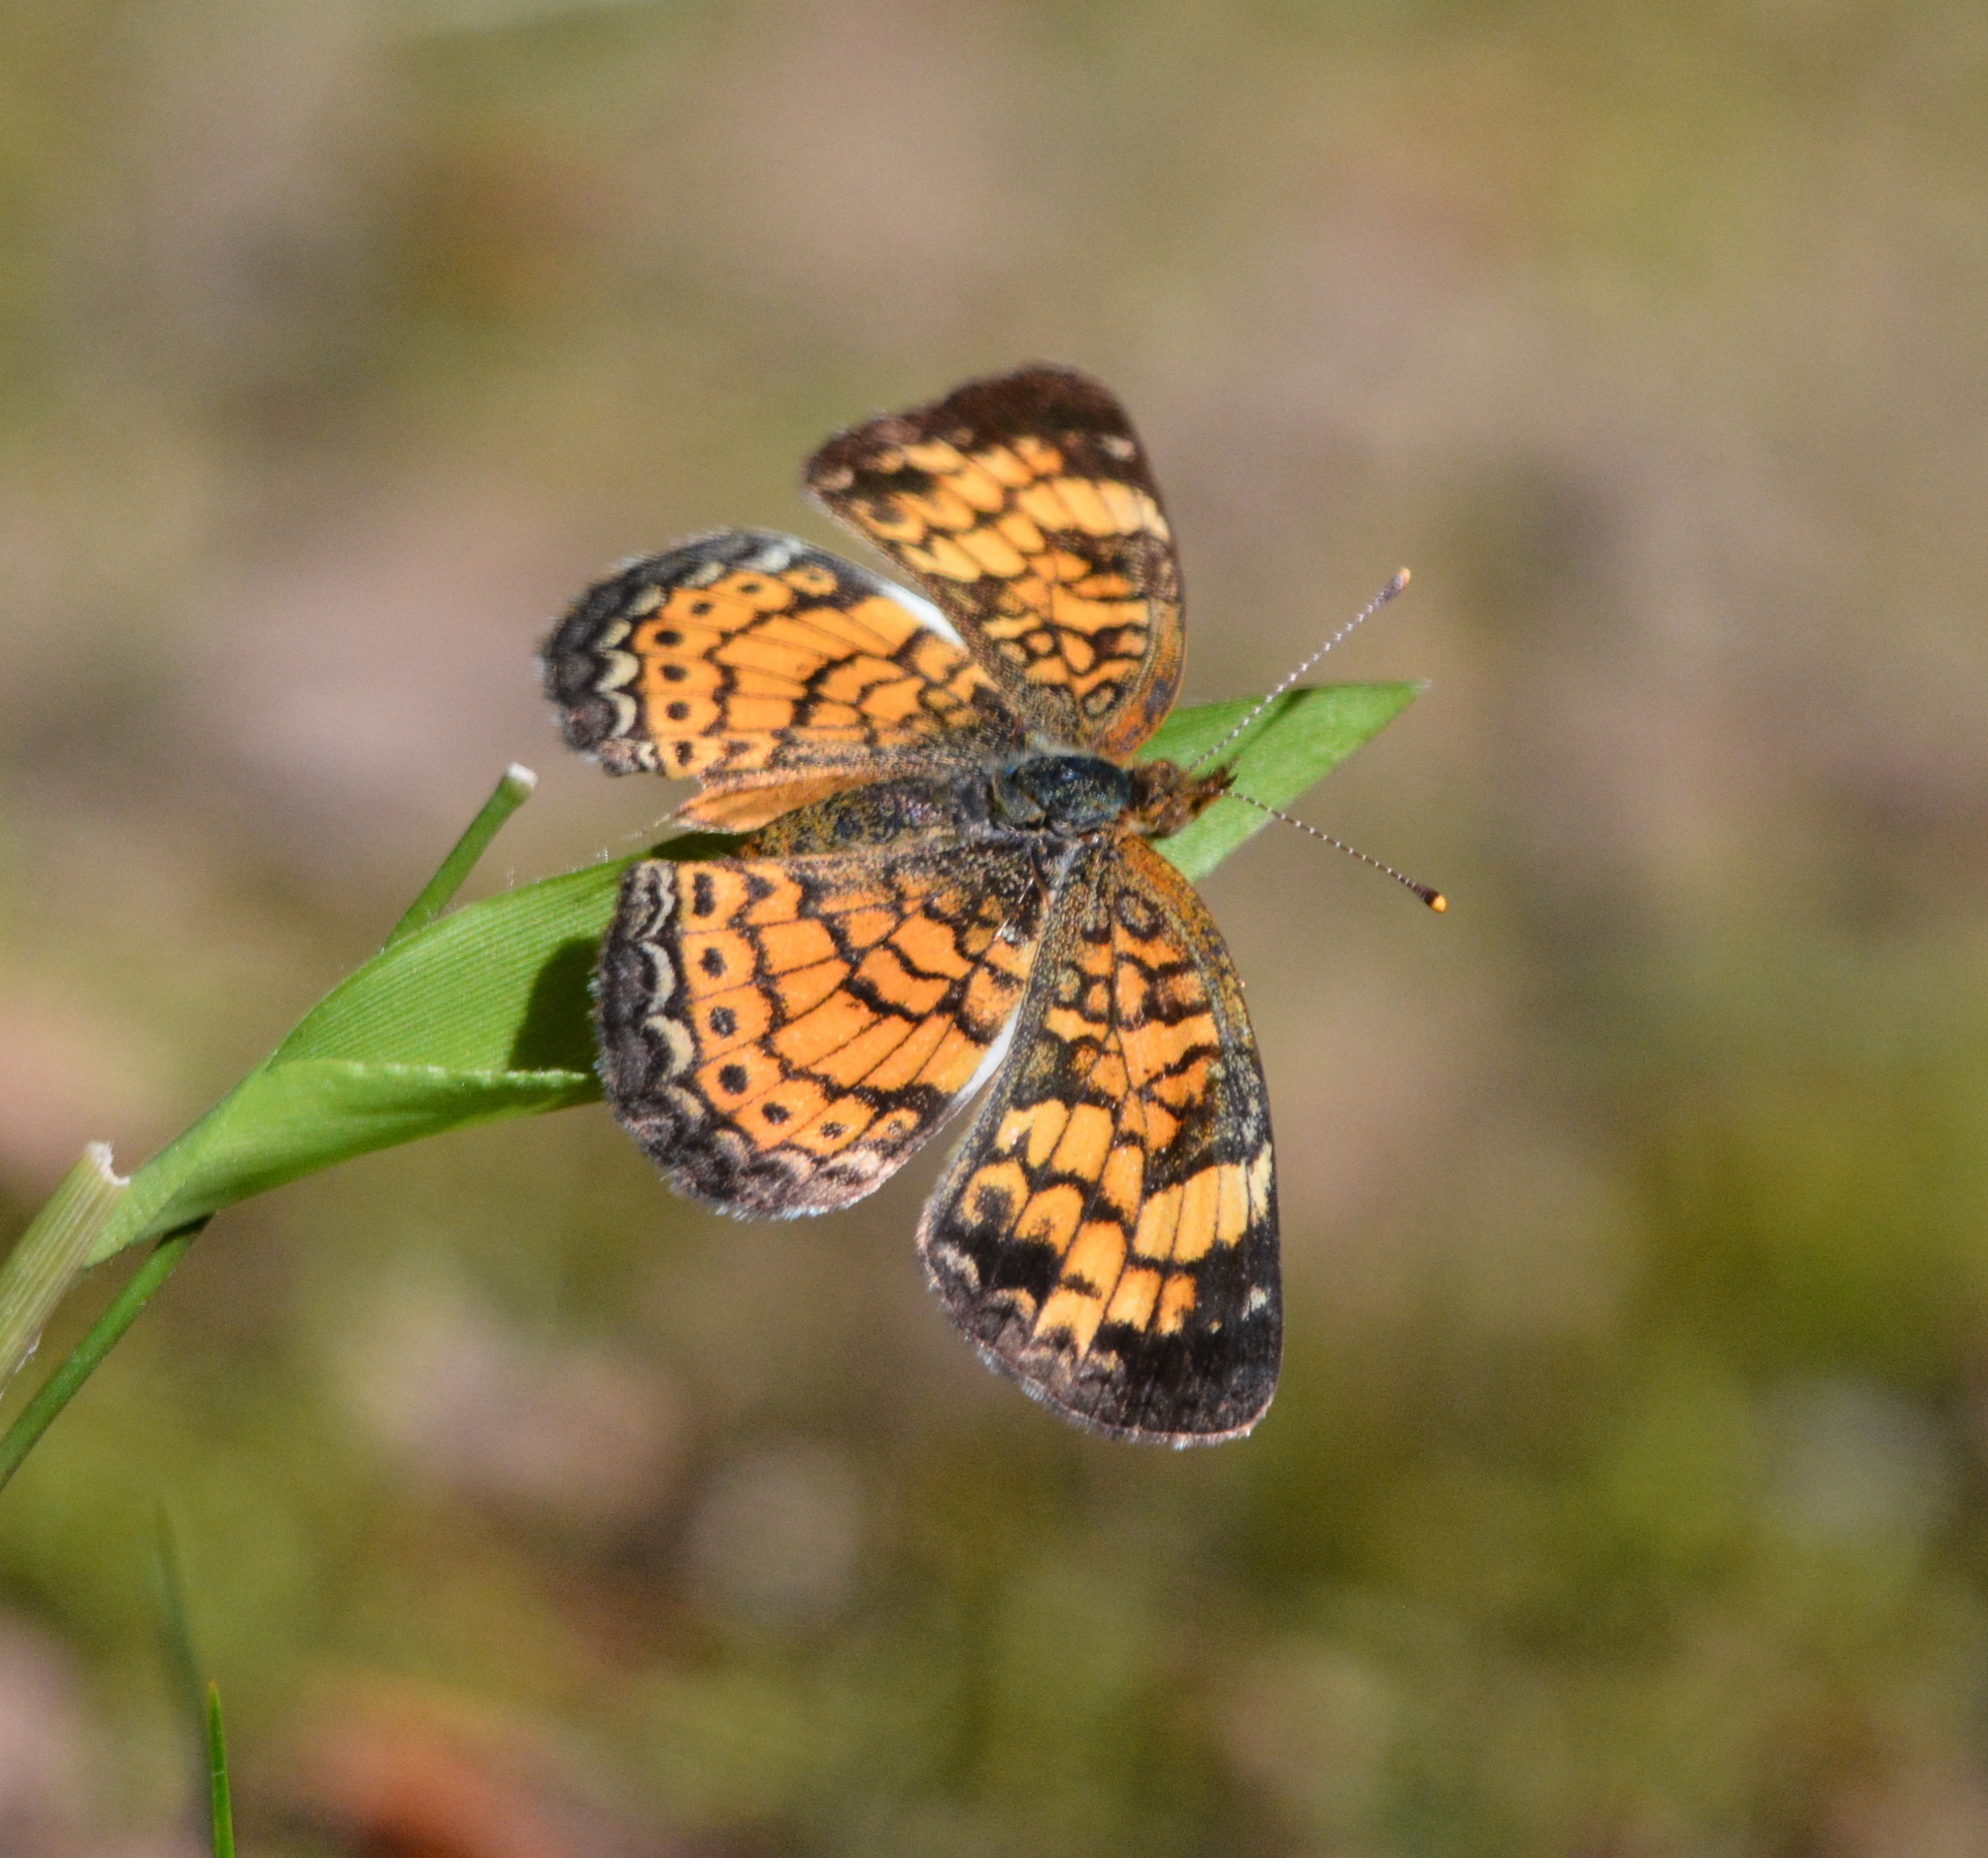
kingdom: Animalia
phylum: Arthropoda
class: Insecta
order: Lepidoptera
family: Nymphalidae
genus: Phyciodes
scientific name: Phyciodes tharos
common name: Pearl crescent
